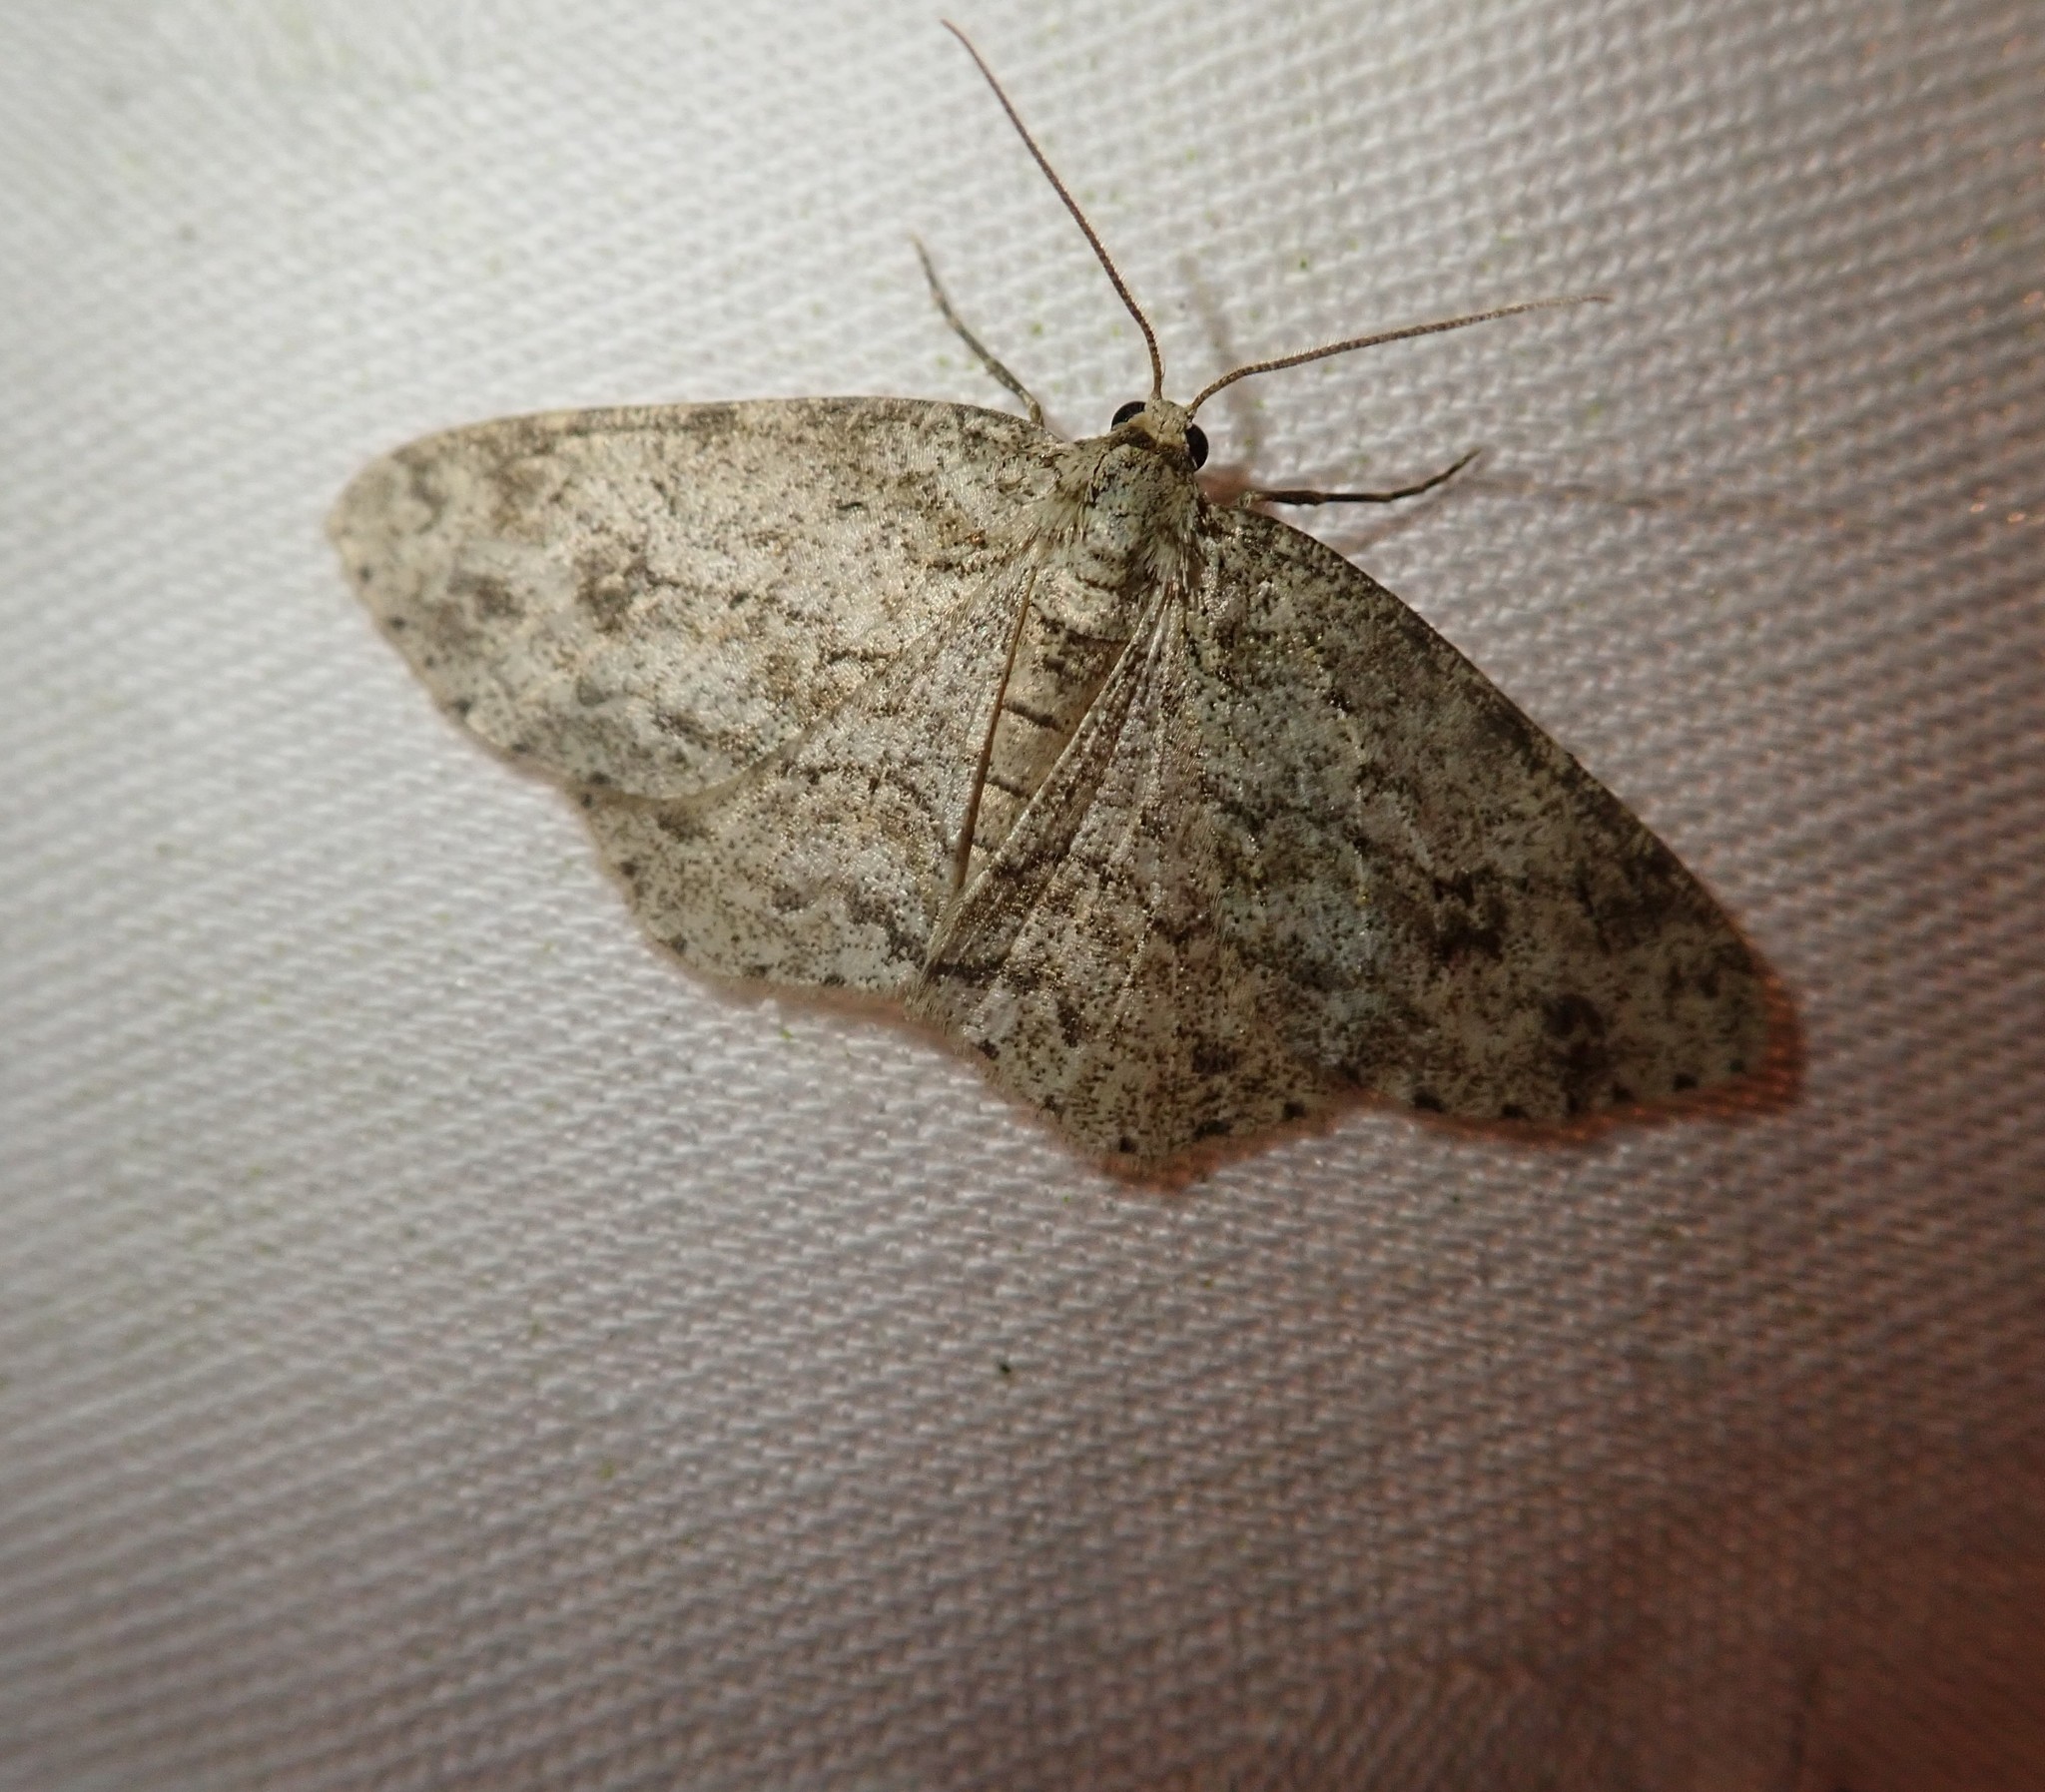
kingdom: Animalia
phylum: Arthropoda
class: Insecta
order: Lepidoptera
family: Geometridae
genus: Ectropis
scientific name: Ectropis crepuscularia
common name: Engrailed
